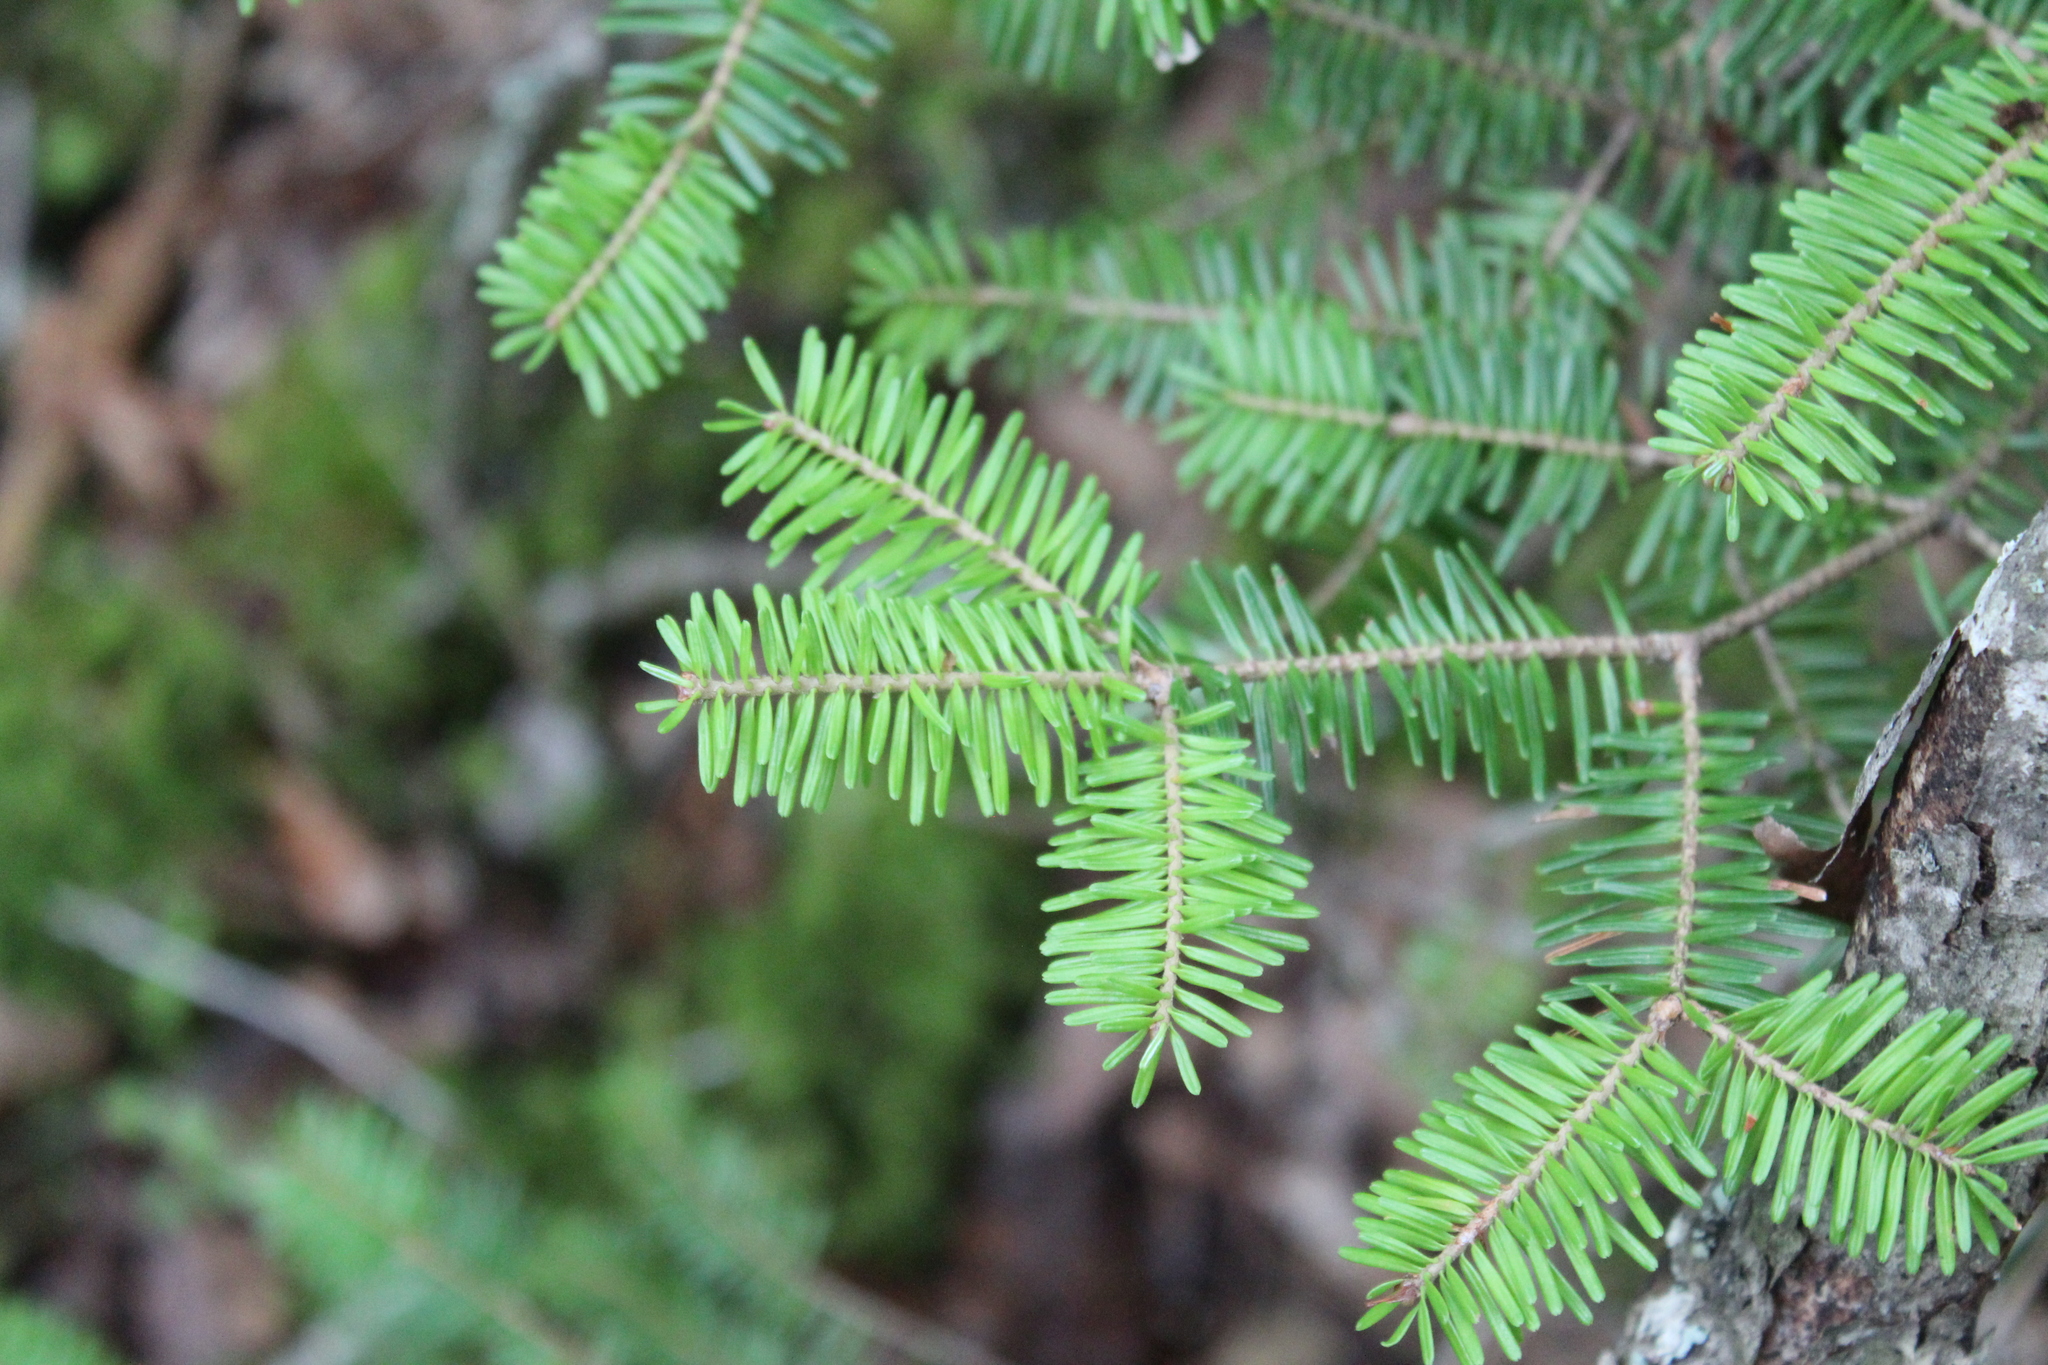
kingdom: Plantae
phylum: Tracheophyta
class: Pinopsida
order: Pinales
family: Pinaceae
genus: Abies
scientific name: Abies balsamea
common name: Balsam fir
